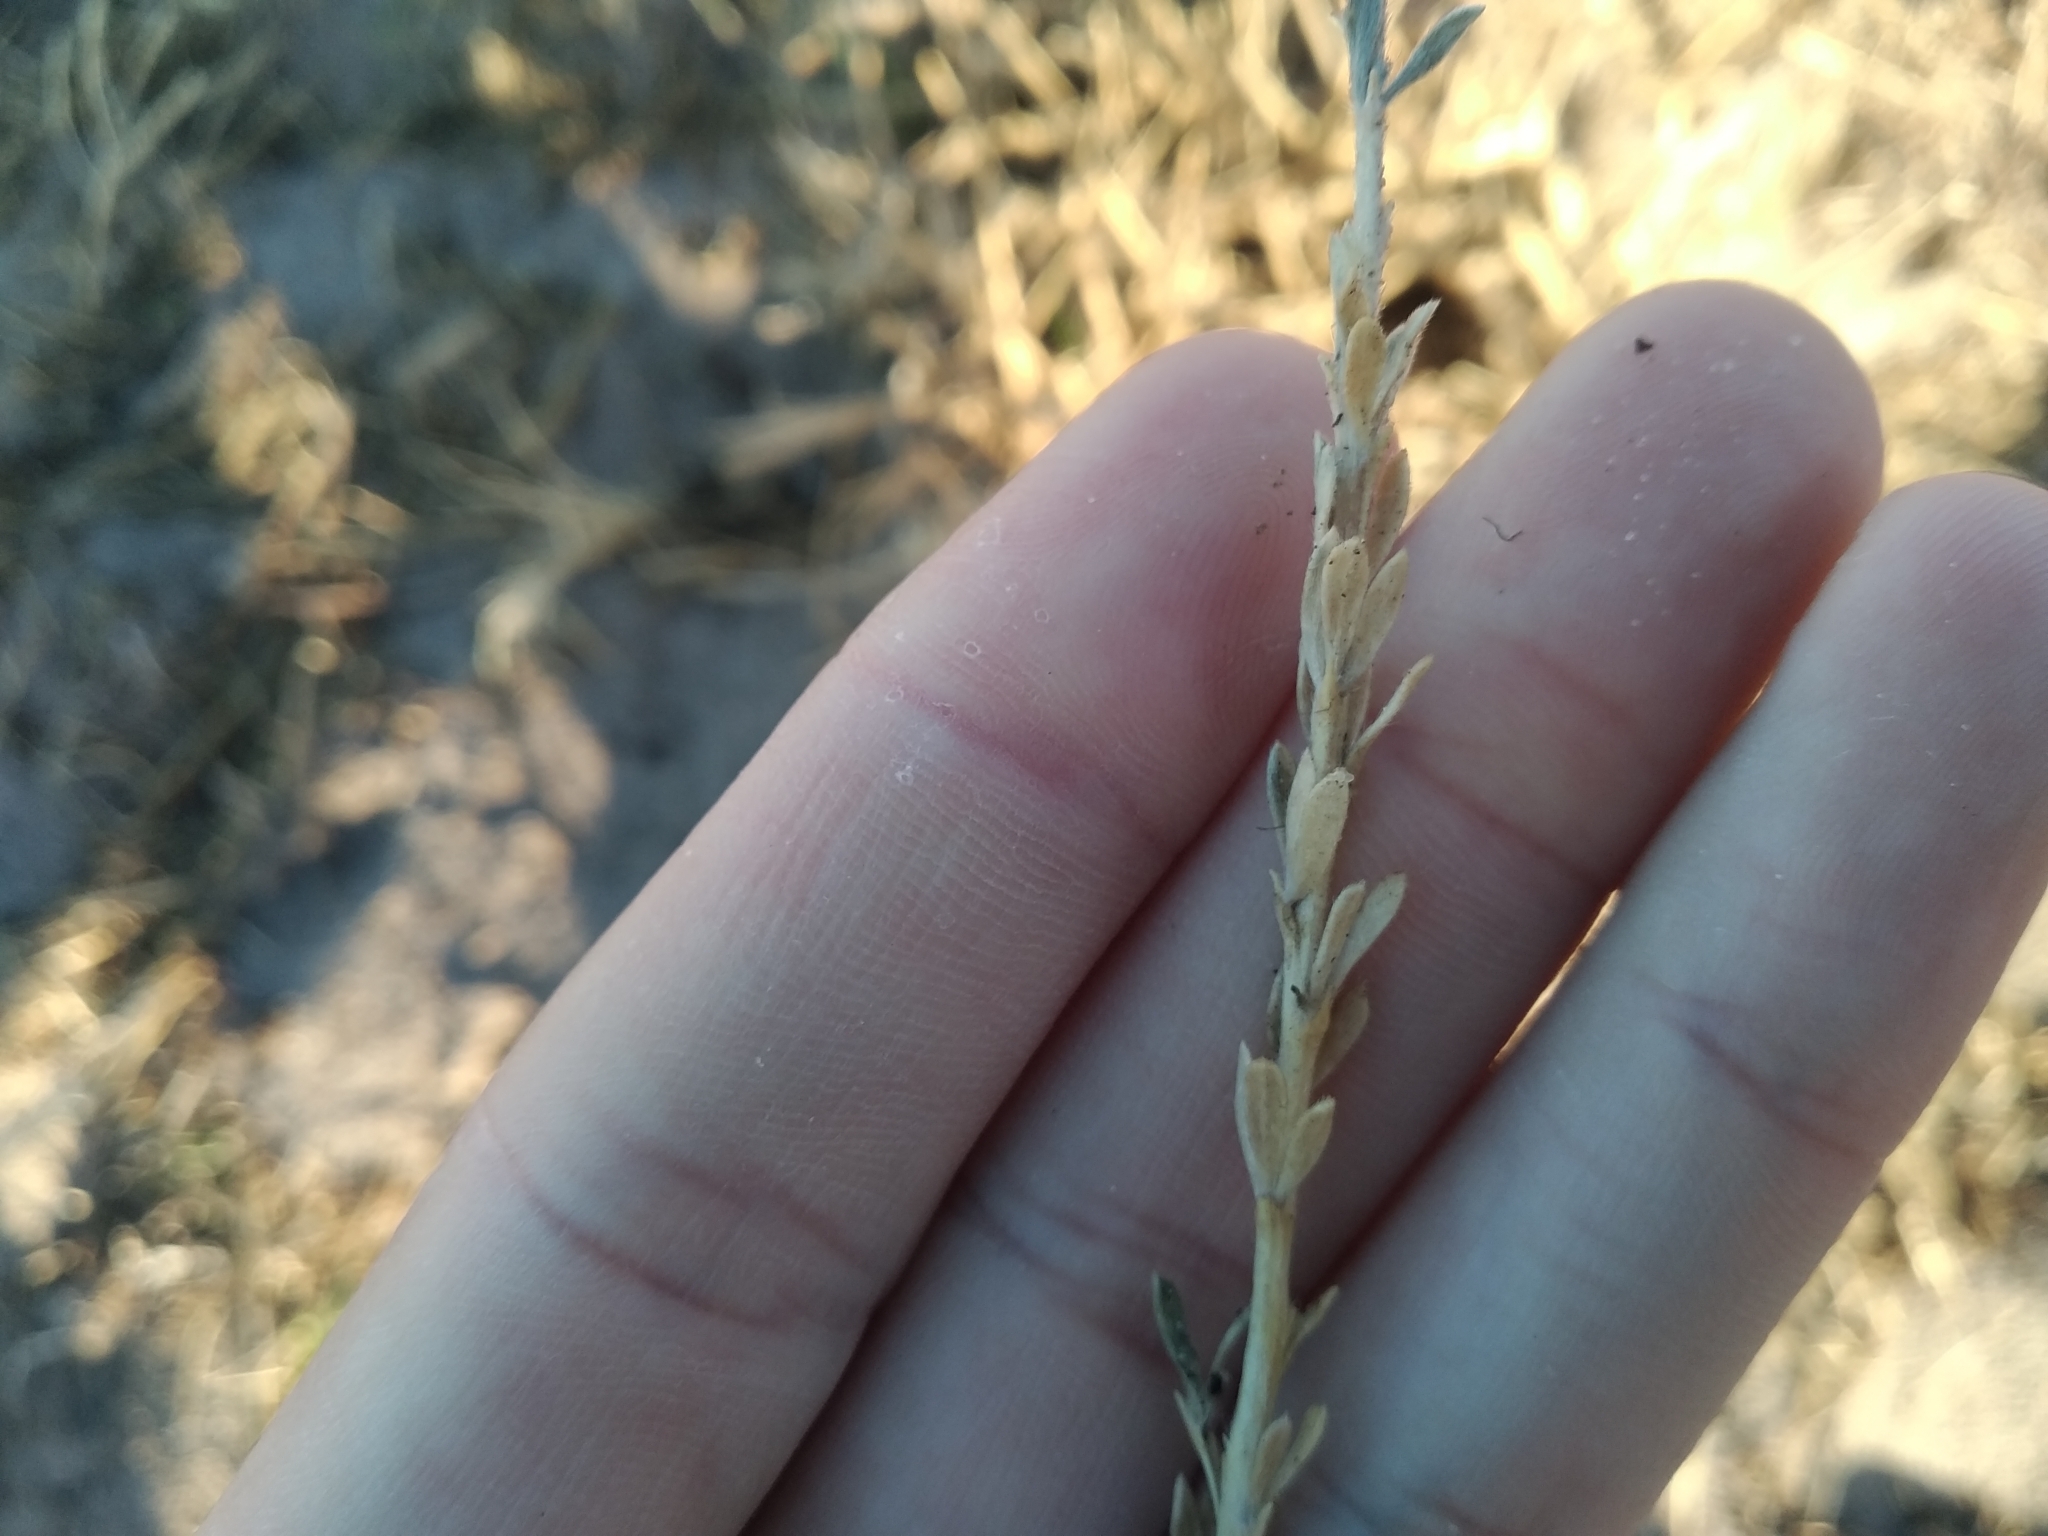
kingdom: Plantae
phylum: Tracheophyta
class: Magnoliopsida
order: Fabales
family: Fabaceae
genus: Aspalathus
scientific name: Aspalathus ternata
